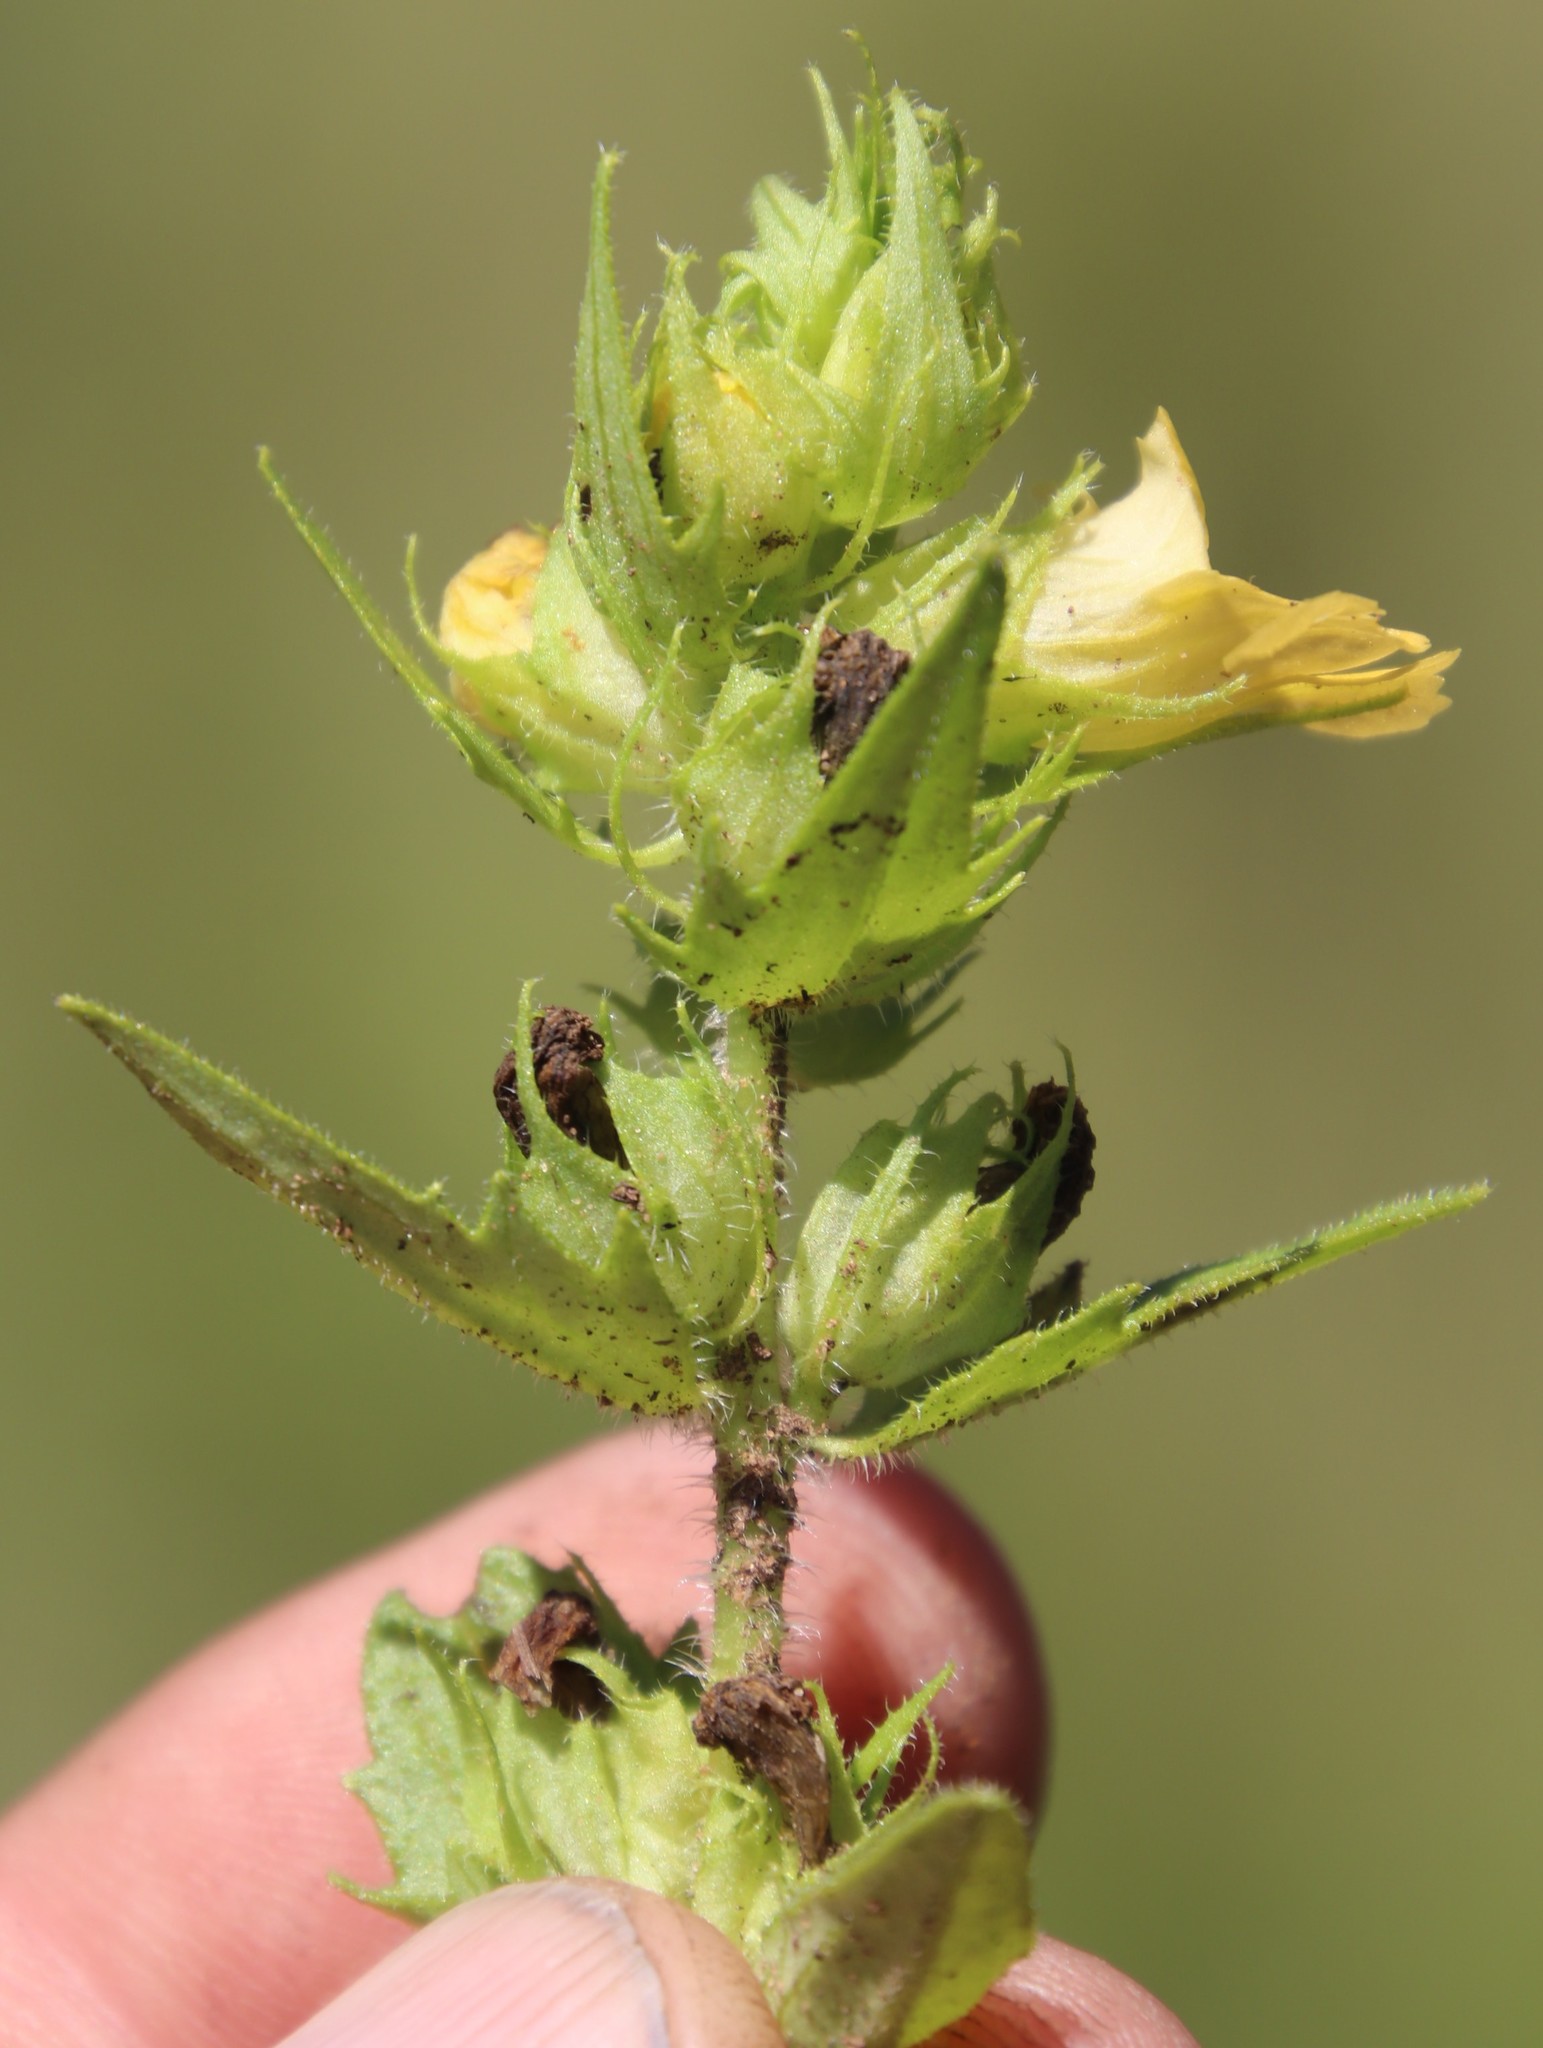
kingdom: Plantae
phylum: Tracheophyta
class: Magnoliopsida
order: Lamiales
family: Orobanchaceae
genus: Alectra
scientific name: Alectra sessiliflora
